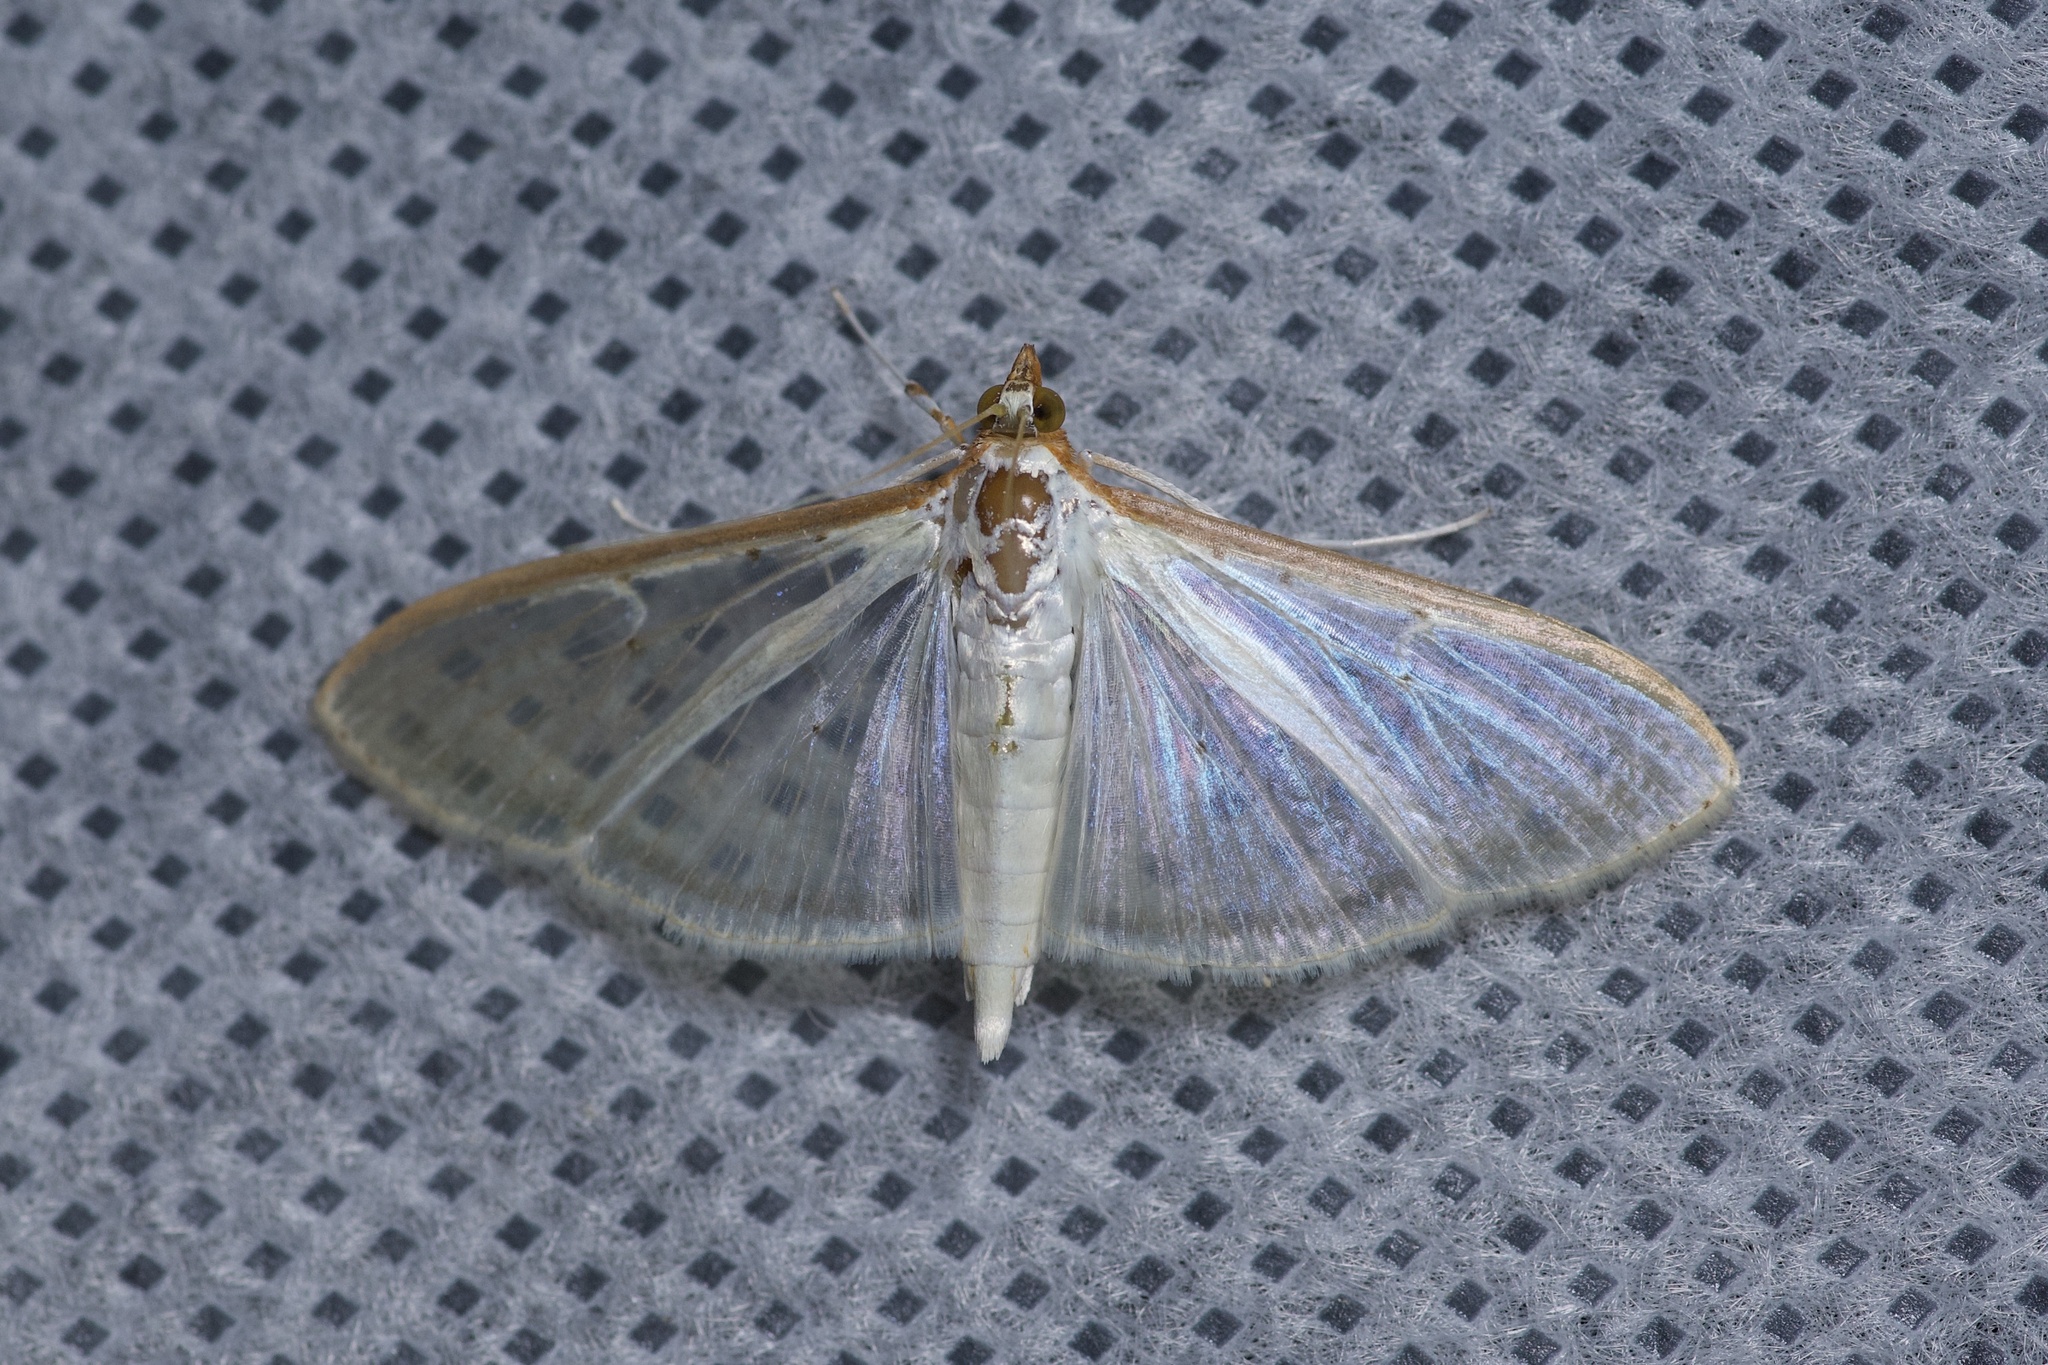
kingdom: Animalia
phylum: Arthropoda
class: Insecta
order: Lepidoptera
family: Crambidae
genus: Palpita
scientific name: Palpita quadristigmalis
